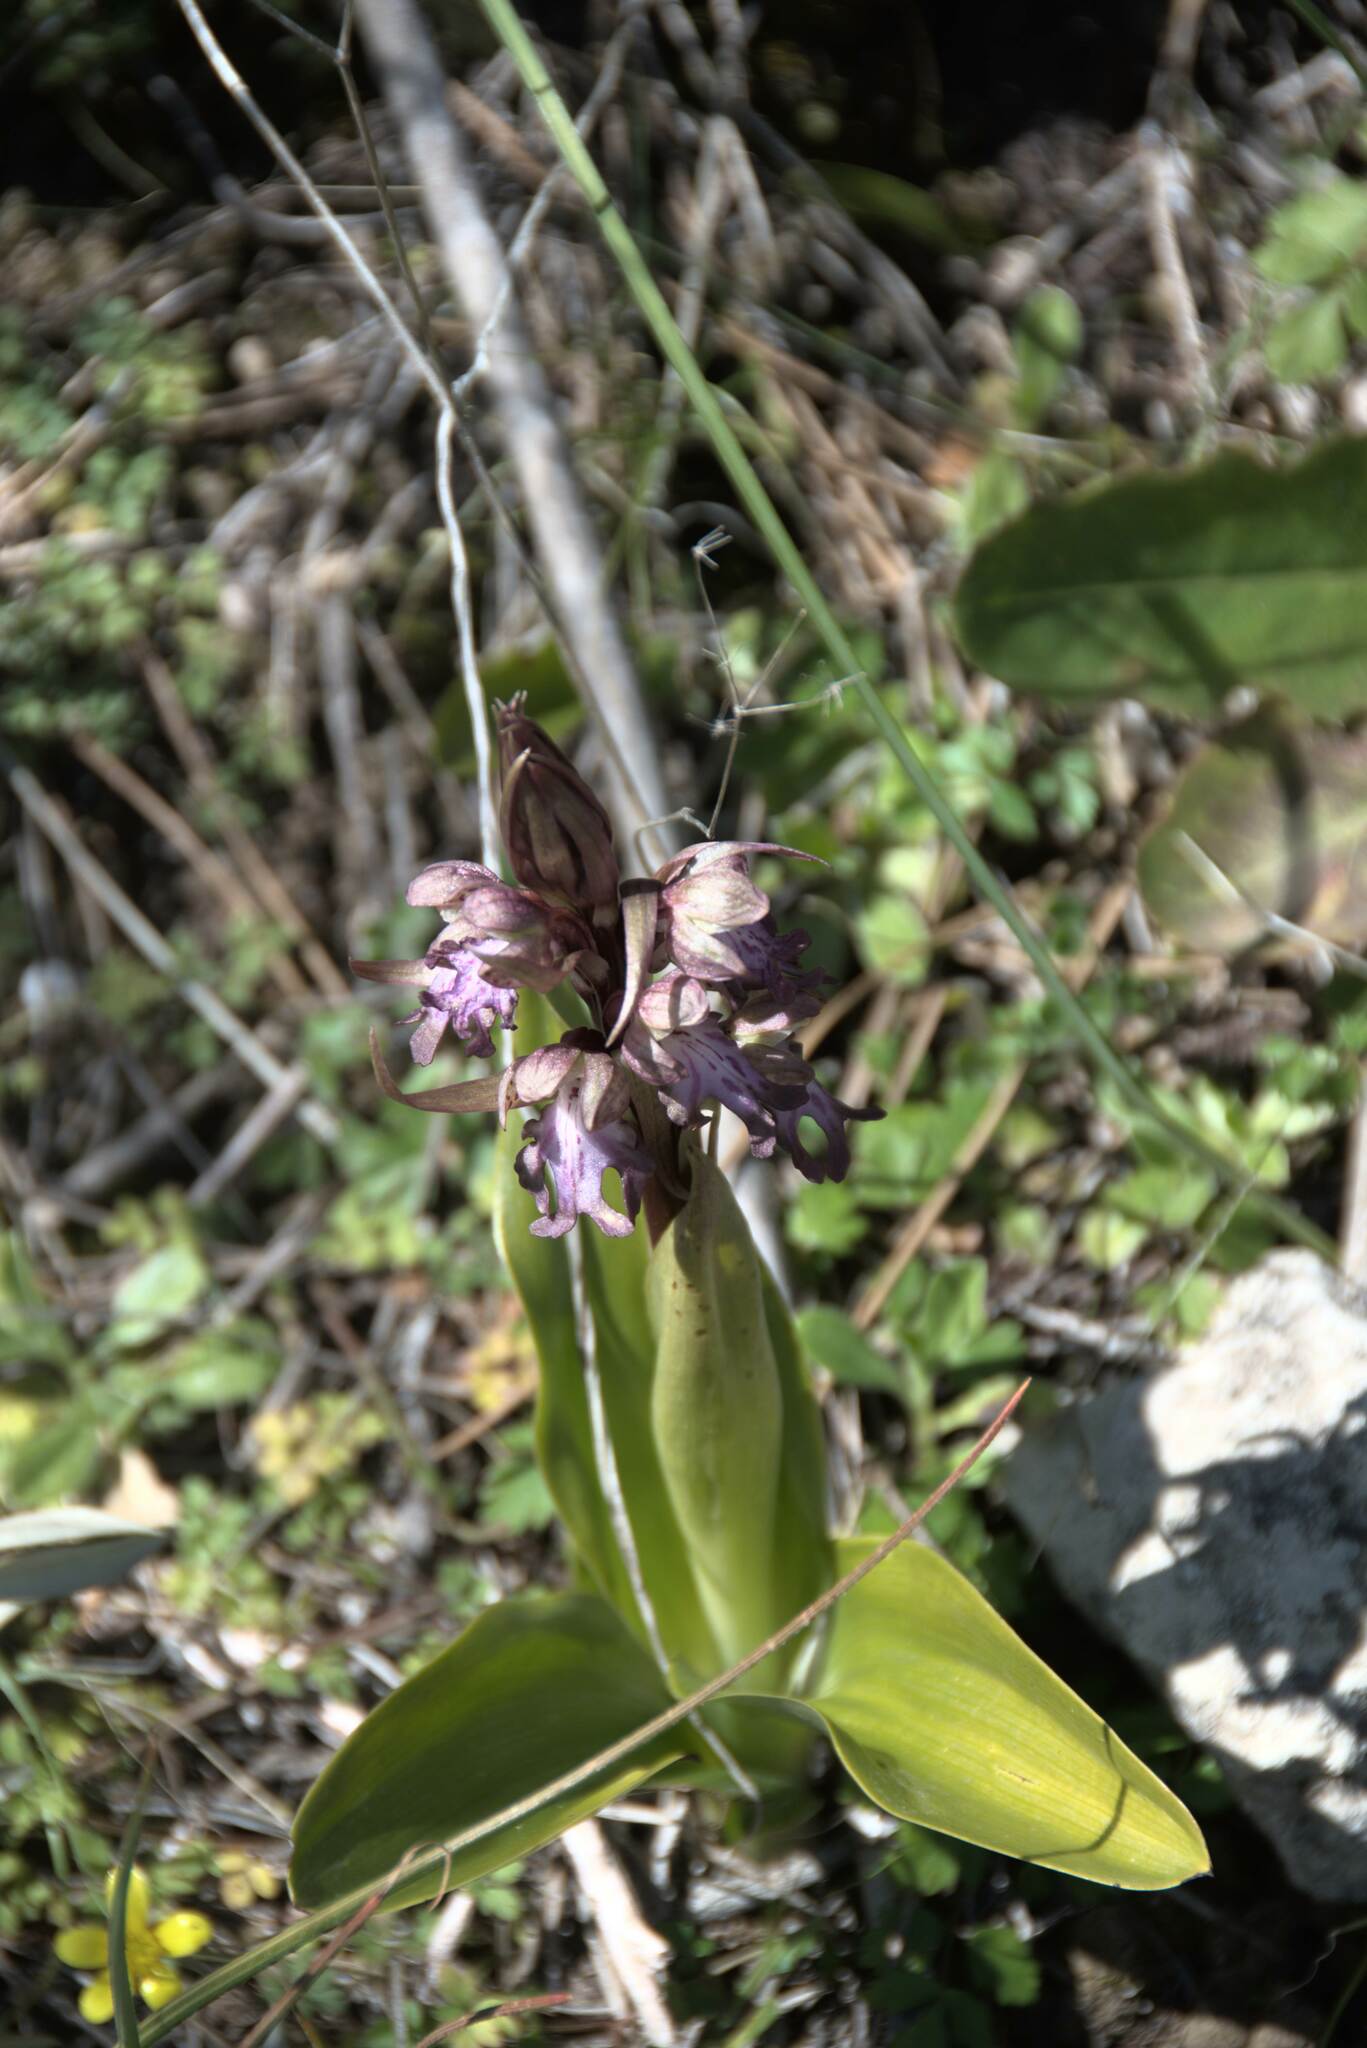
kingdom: Plantae
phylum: Tracheophyta
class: Liliopsida
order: Asparagales
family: Orchidaceae
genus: Himantoglossum
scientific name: Himantoglossum robertianum
